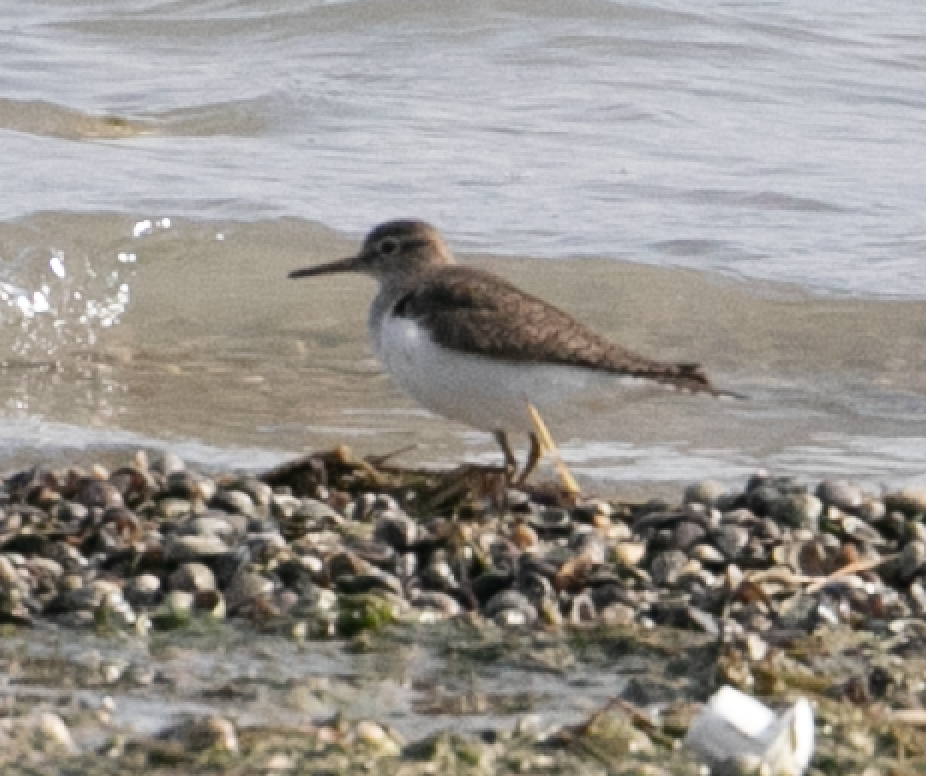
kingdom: Animalia
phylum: Chordata
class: Aves
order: Charadriiformes
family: Scolopacidae
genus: Actitis
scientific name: Actitis hypoleucos
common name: Common sandpiper
